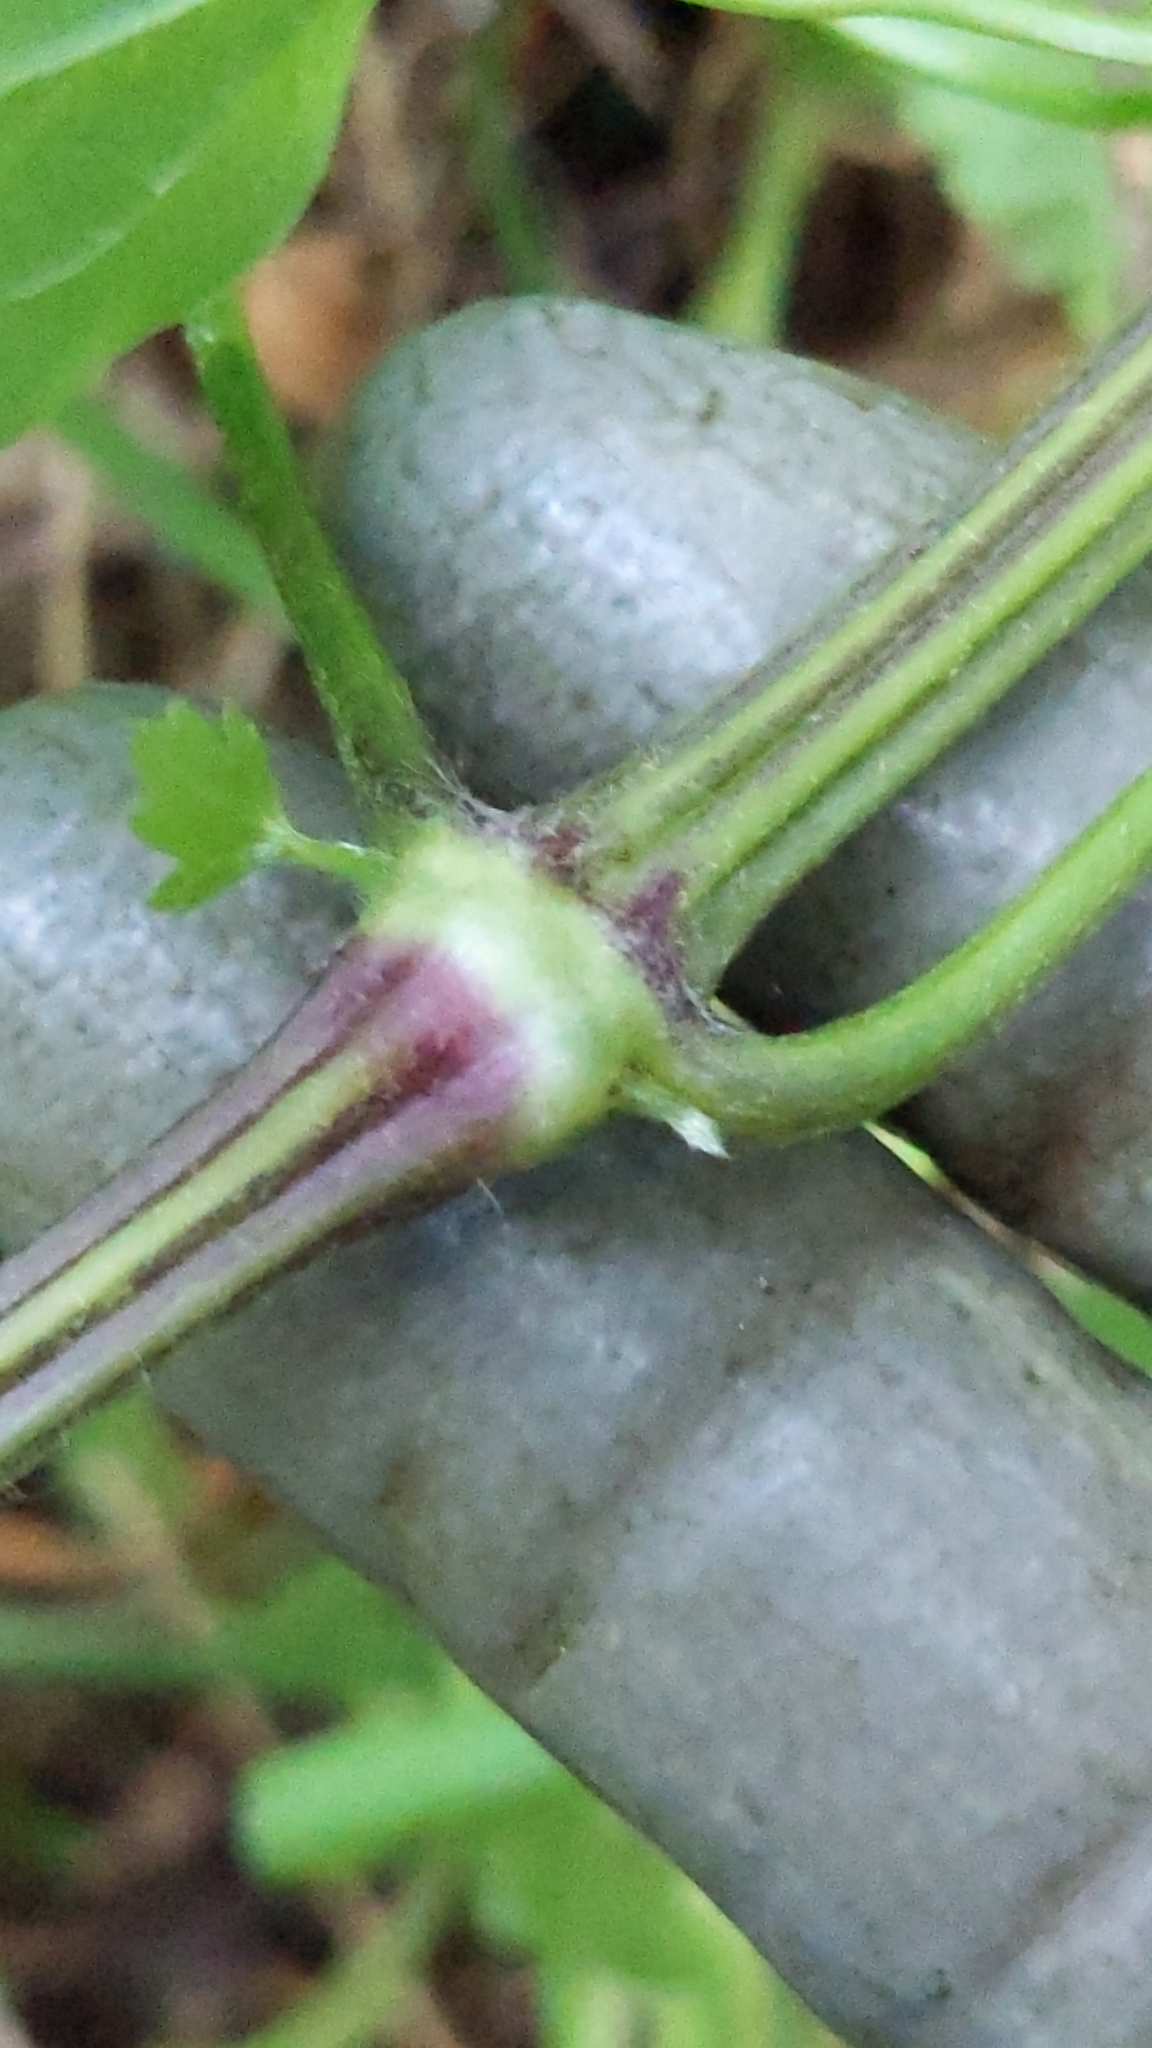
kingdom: Plantae
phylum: Tracheophyta
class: Magnoliopsida
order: Ranunculales
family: Ranunculaceae
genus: Clematis
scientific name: Clematis vitalba
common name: Evergreen clematis
